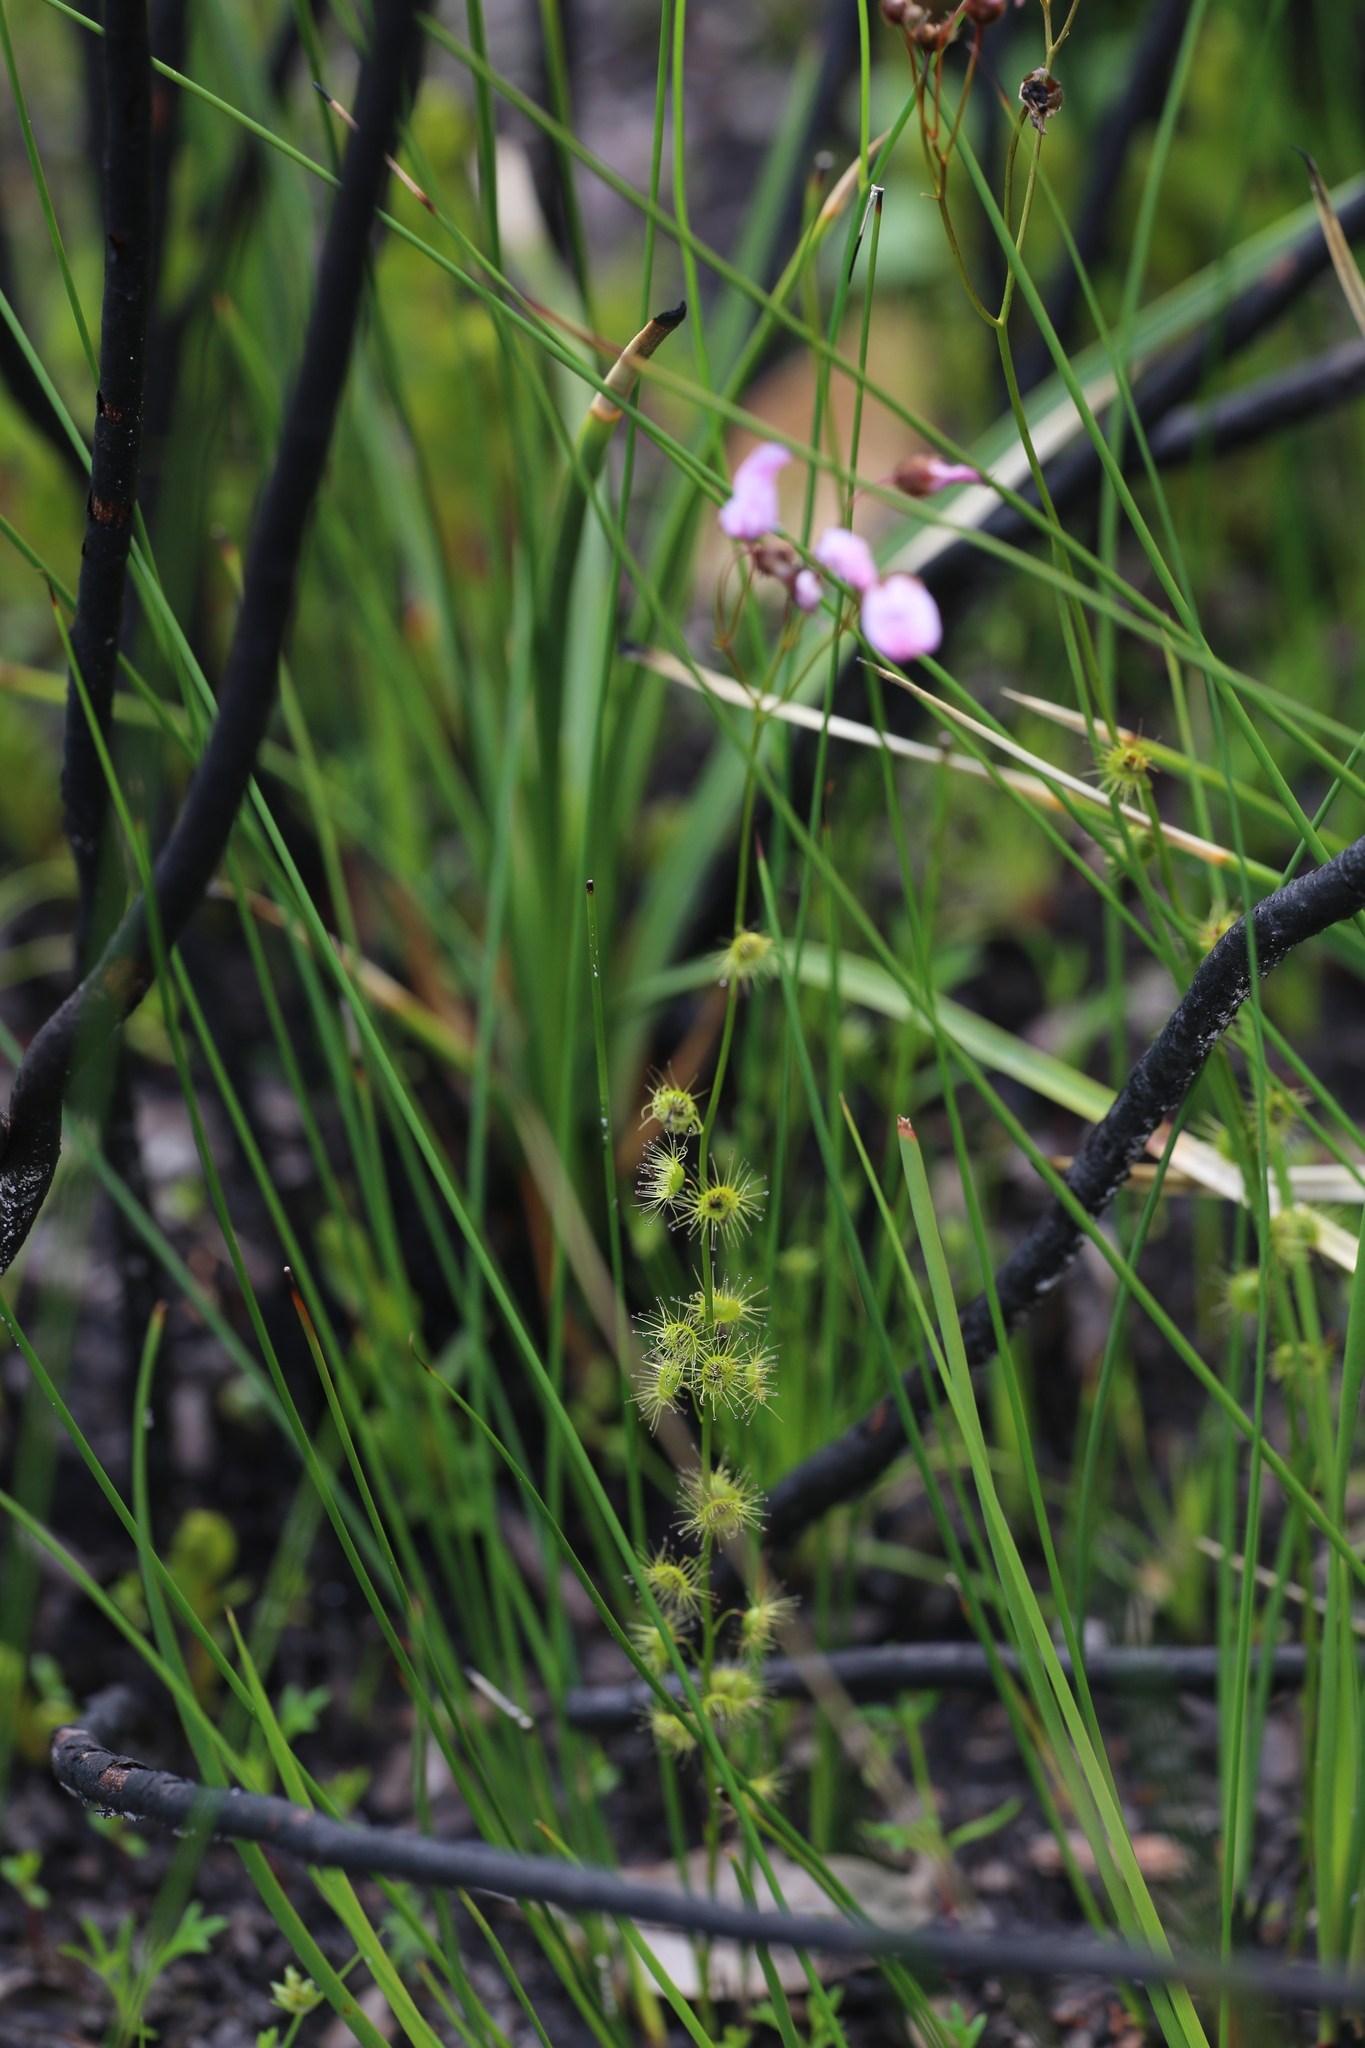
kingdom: Plantae
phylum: Tracheophyta
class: Magnoliopsida
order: Caryophyllales
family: Droseraceae
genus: Drosera
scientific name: Drosera marchantii
